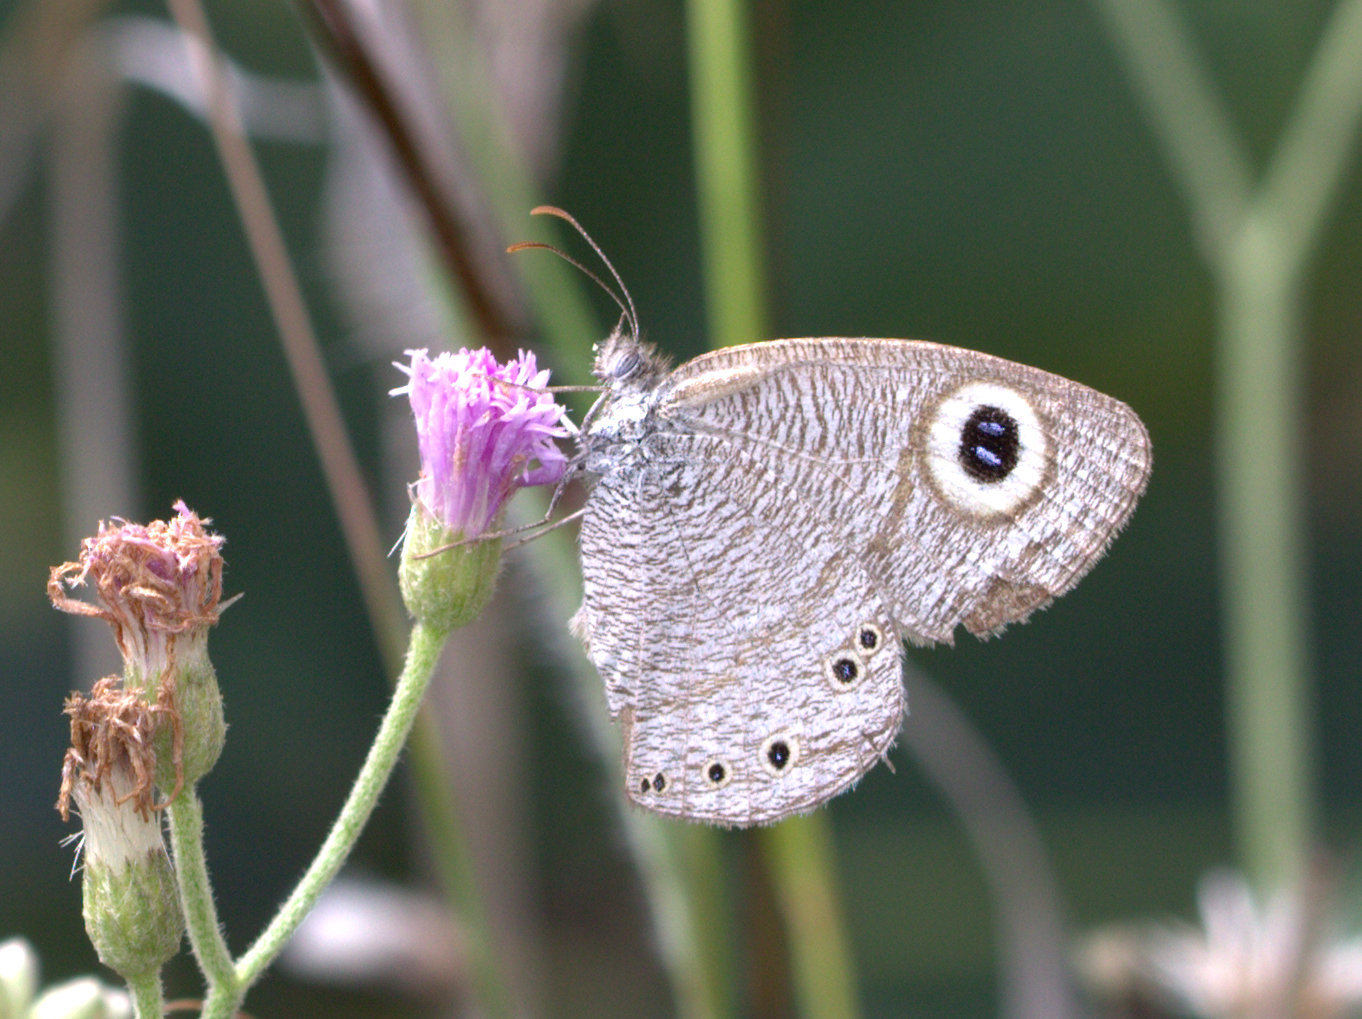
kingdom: Animalia
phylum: Arthropoda
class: Insecta
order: Lepidoptera
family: Nymphalidae
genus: Ypthima
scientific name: Ypthima avanta
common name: Jewel five-ring
